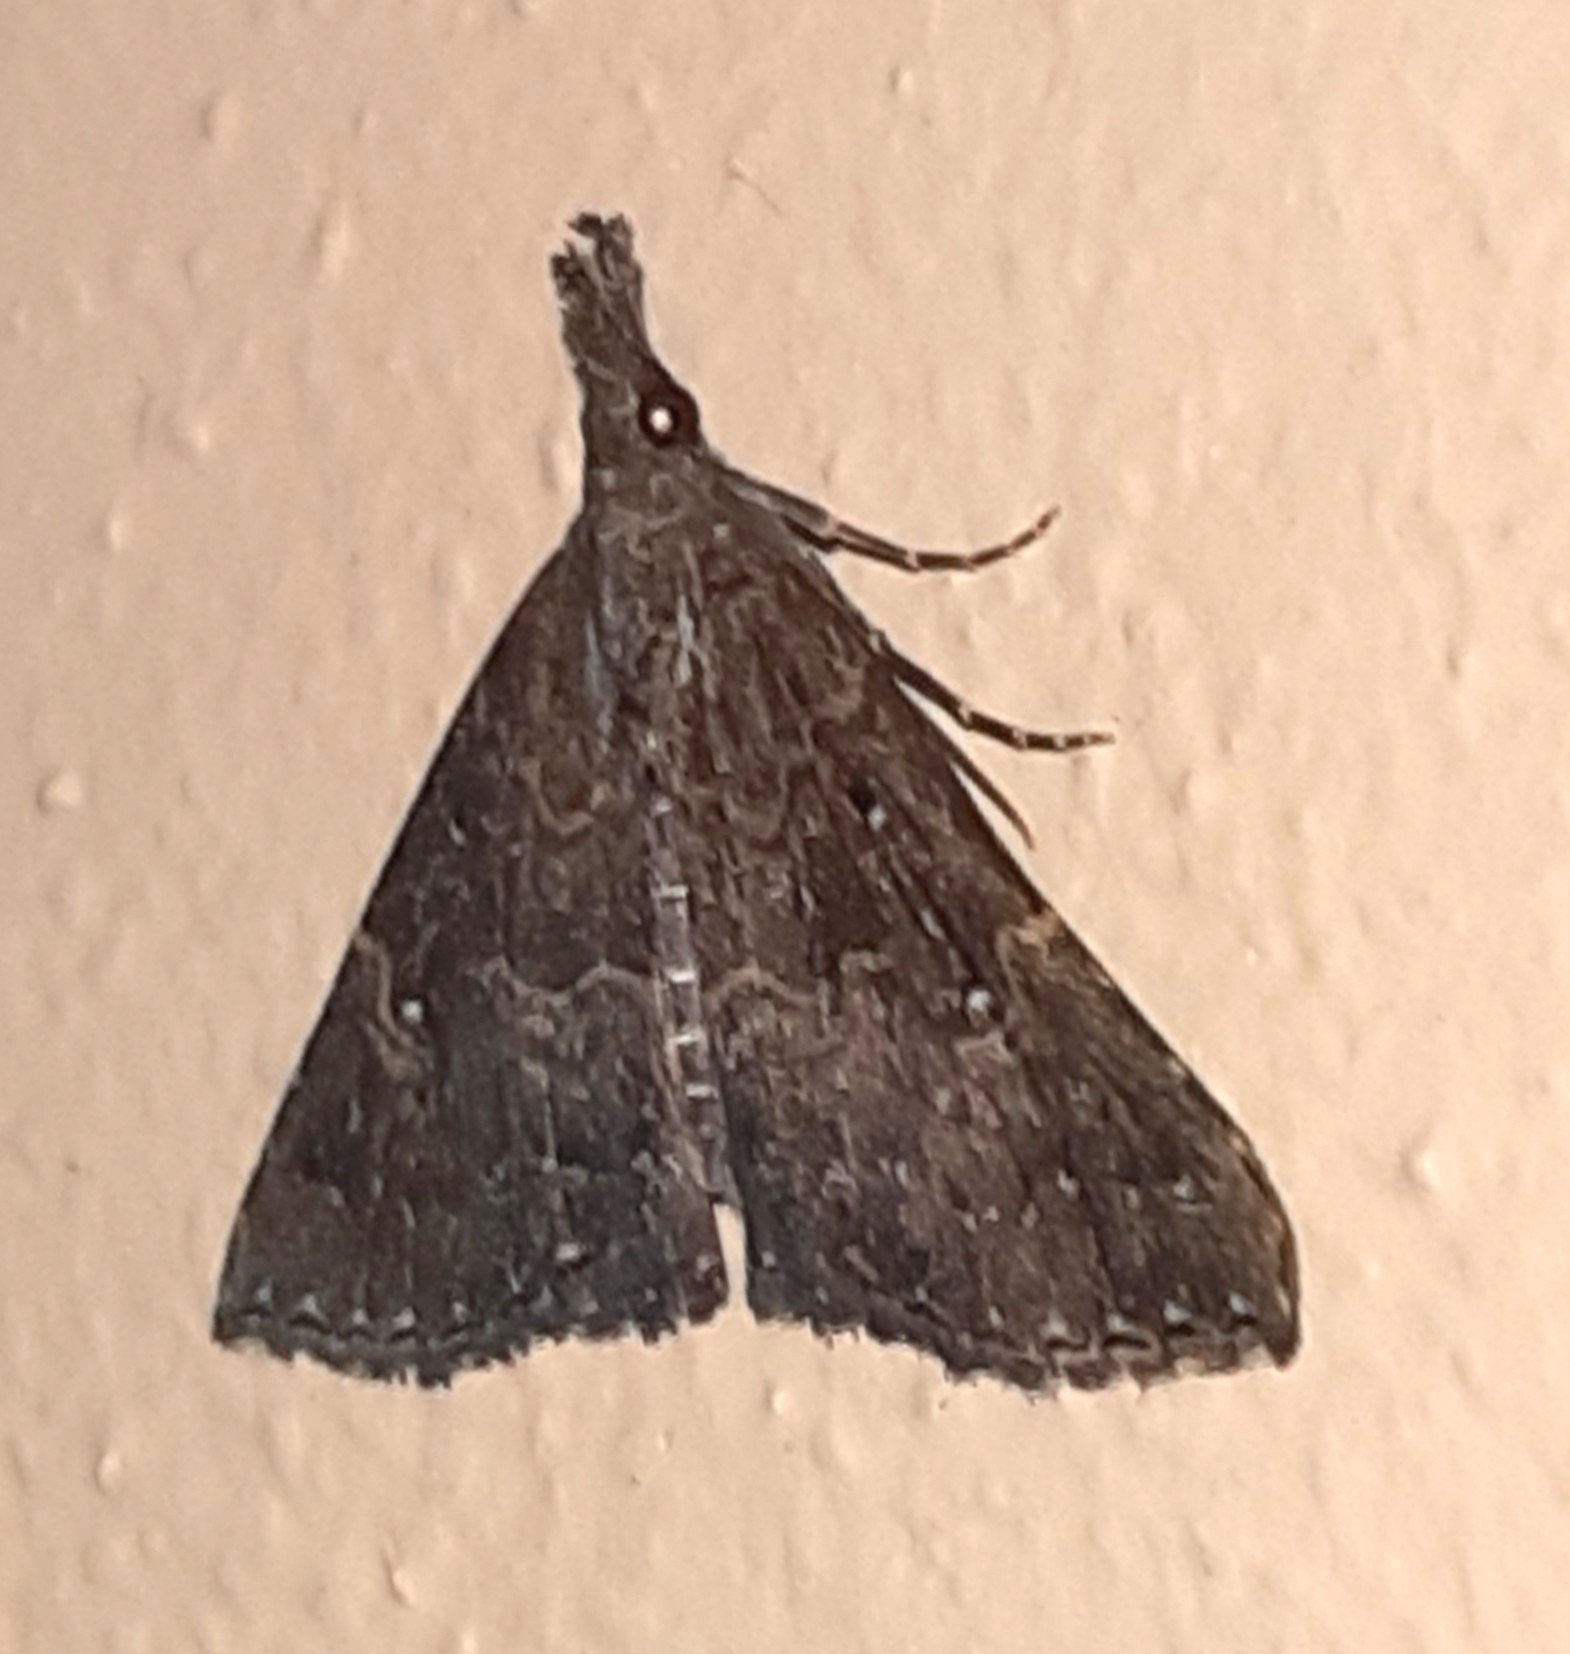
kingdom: Animalia
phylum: Arthropoda
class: Insecta
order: Lepidoptera
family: Erebidae
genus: Hypena
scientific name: Hypena peruvialis
